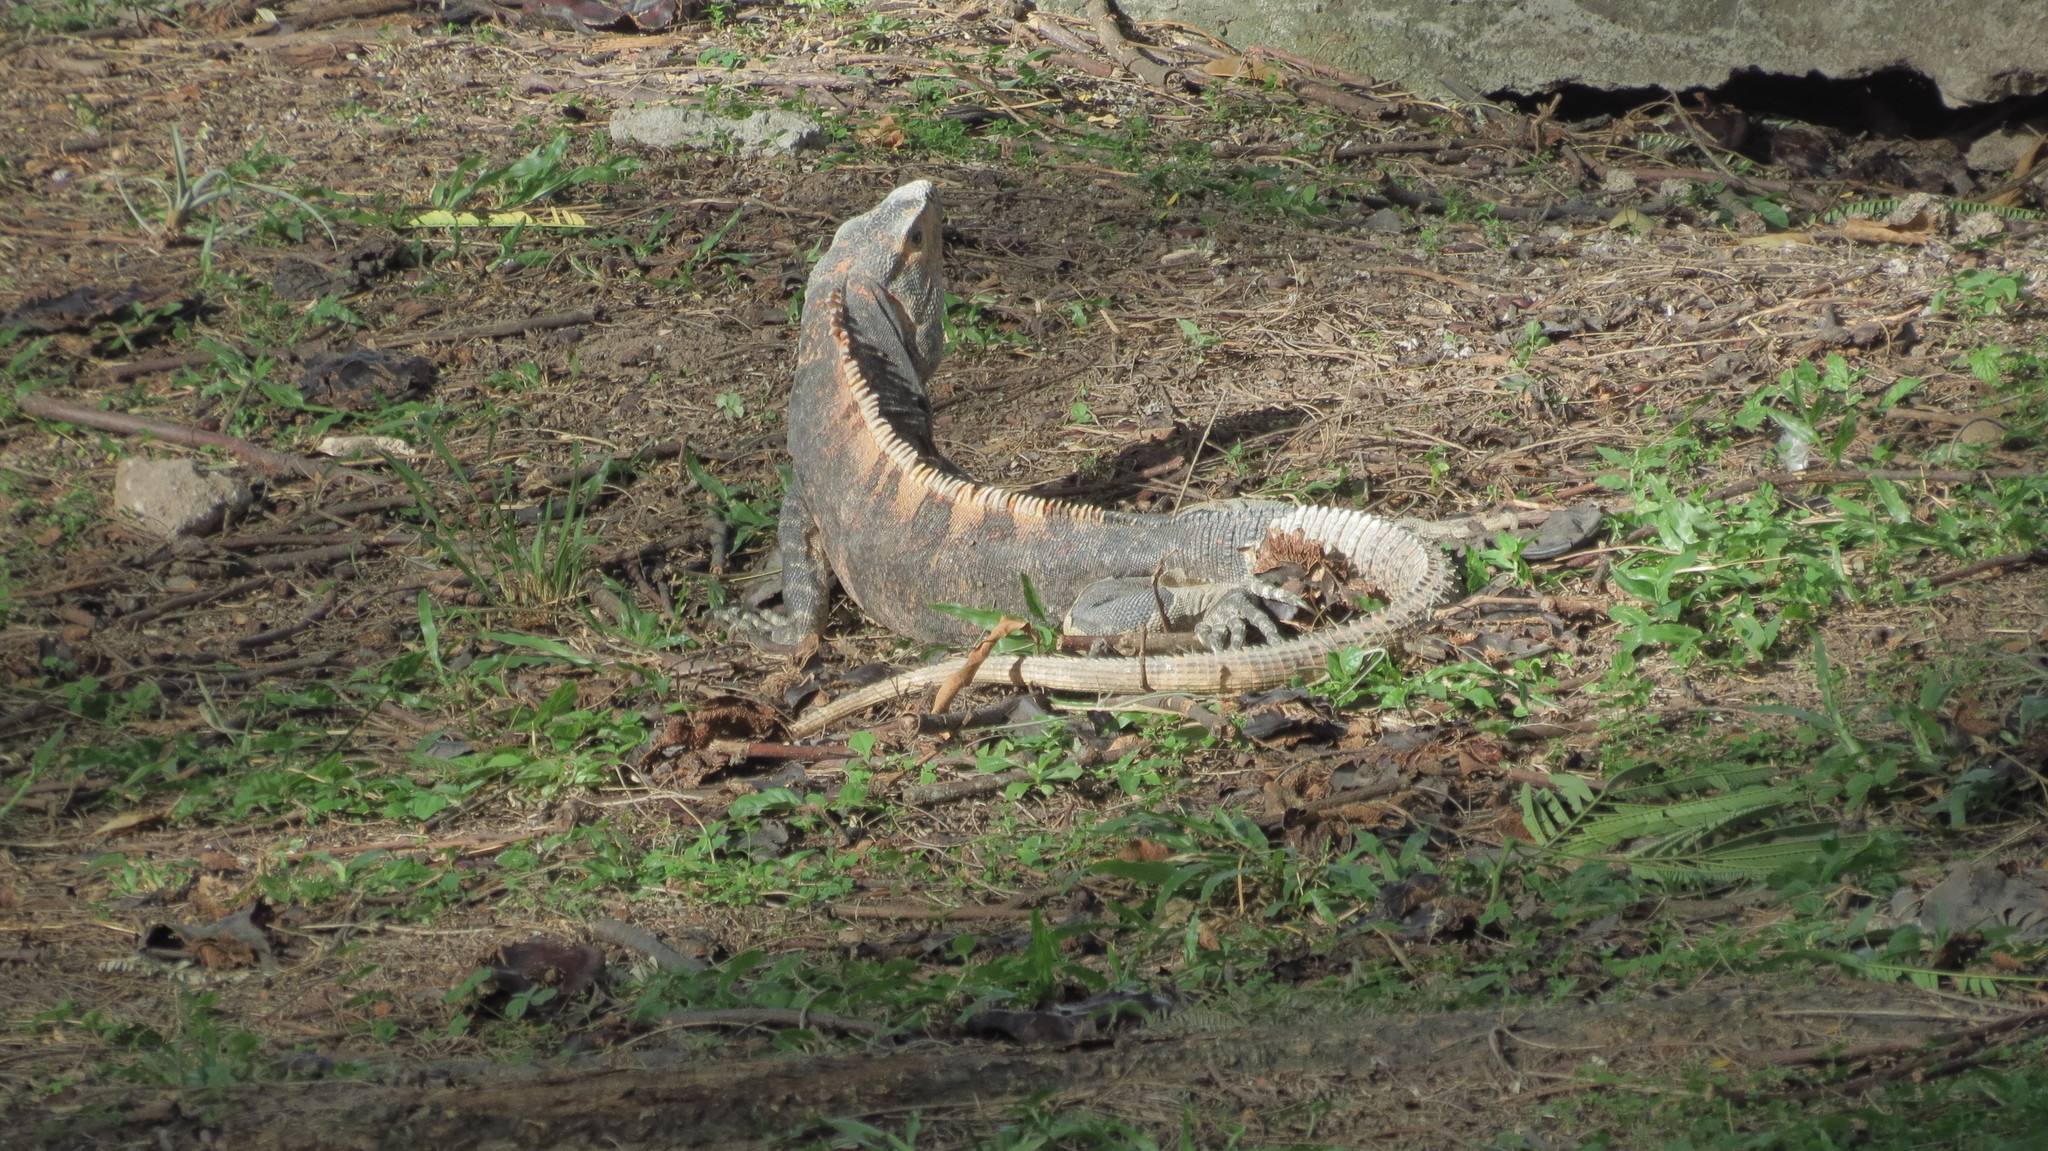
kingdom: Animalia
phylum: Chordata
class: Squamata
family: Iguanidae
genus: Ctenosaura
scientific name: Ctenosaura similis
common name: Black spiny-tailed iguana
